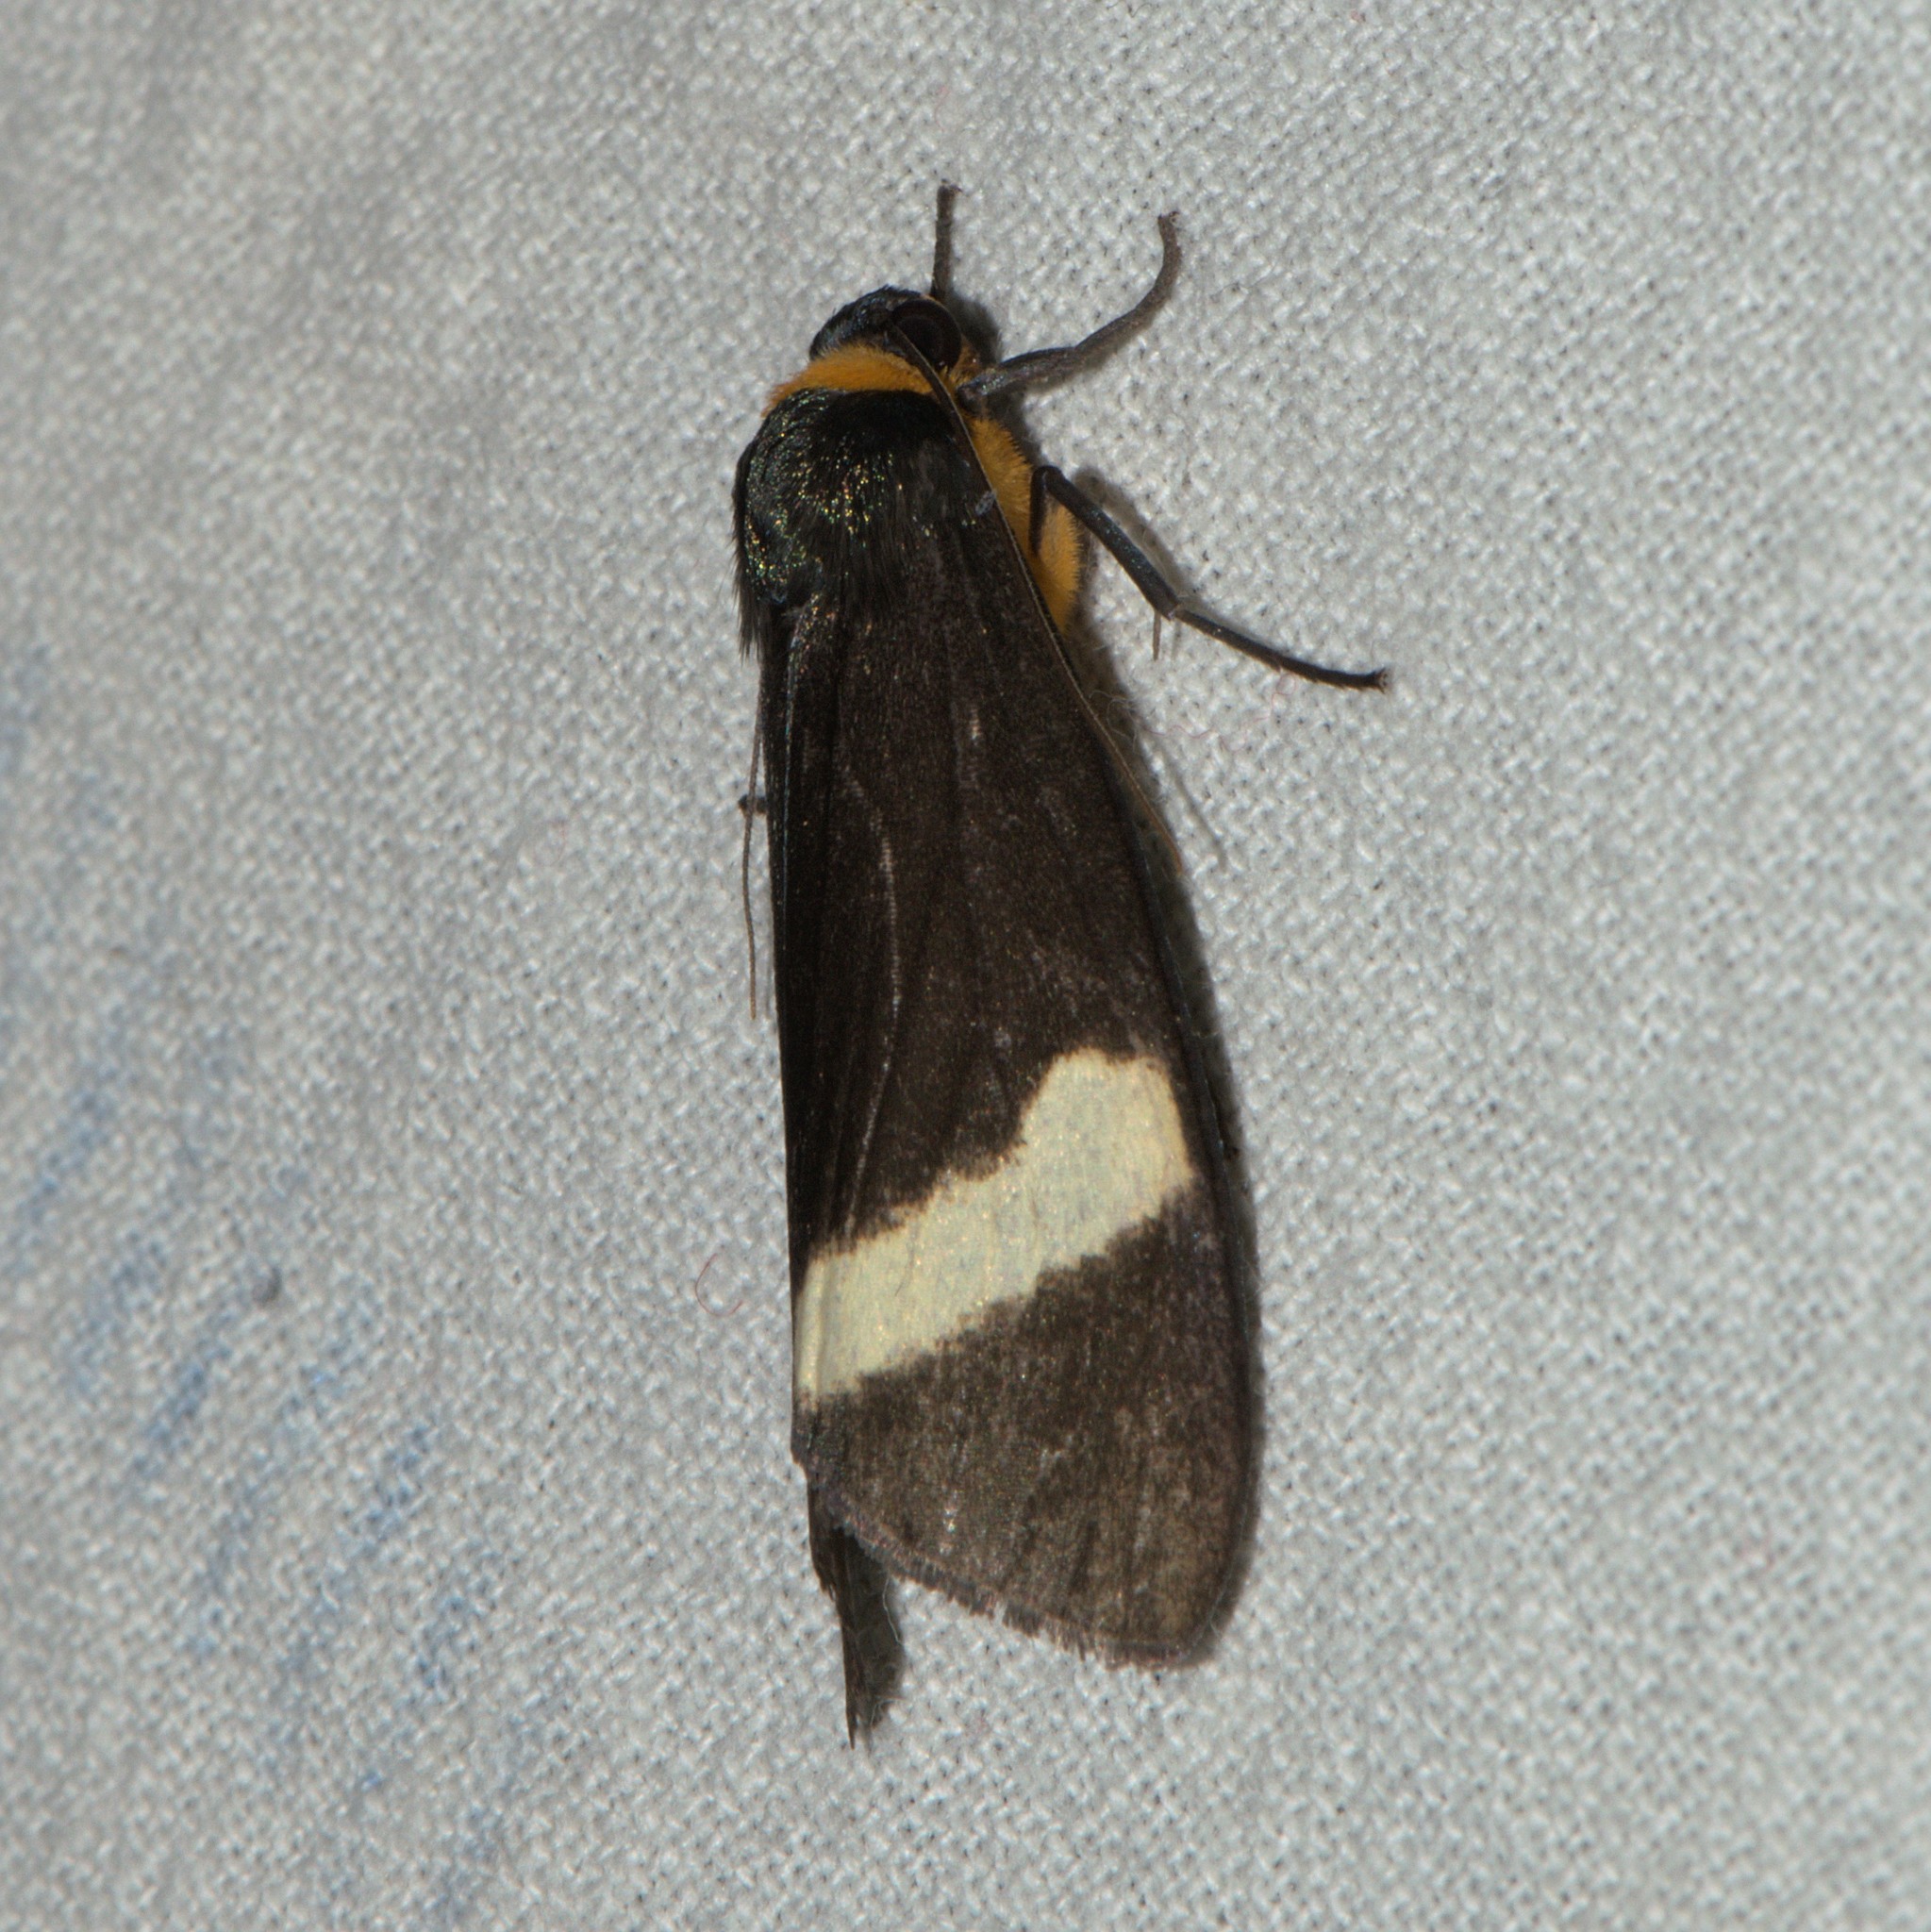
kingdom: Animalia
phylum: Arthropoda
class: Insecta
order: Lepidoptera
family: Erebidae
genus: Macrobrochis
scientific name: Macrobrochis albifascia
